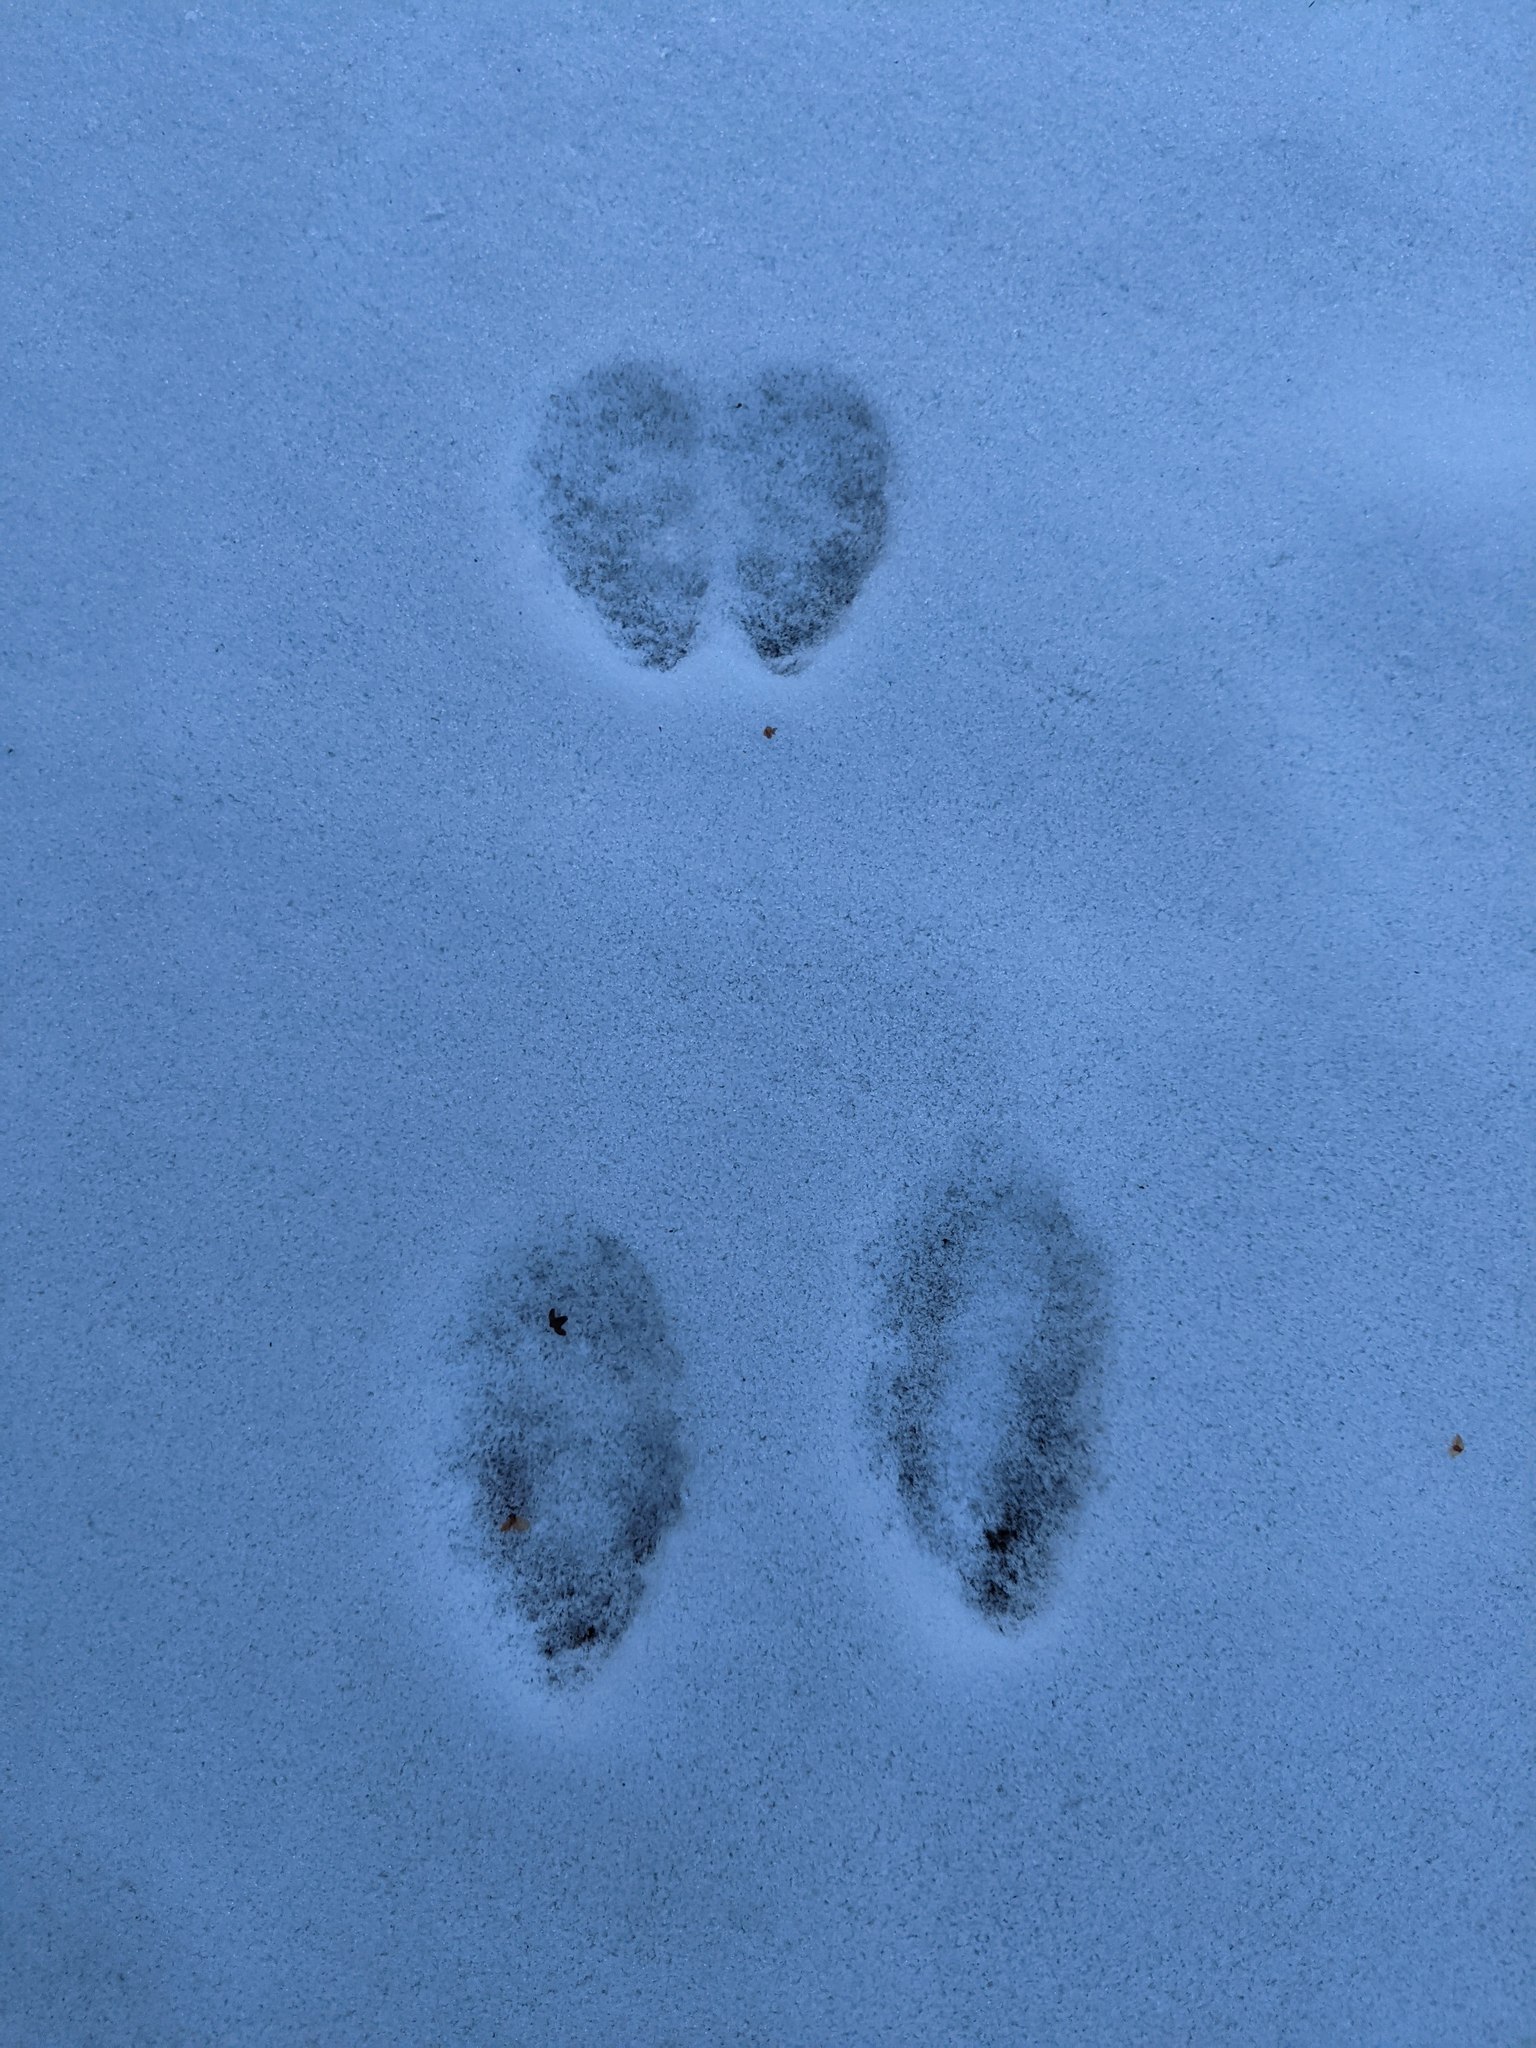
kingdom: Animalia
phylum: Chordata
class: Mammalia
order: Lagomorpha
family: Leporidae
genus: Sylvilagus
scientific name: Sylvilagus floridanus
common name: Eastern cottontail
